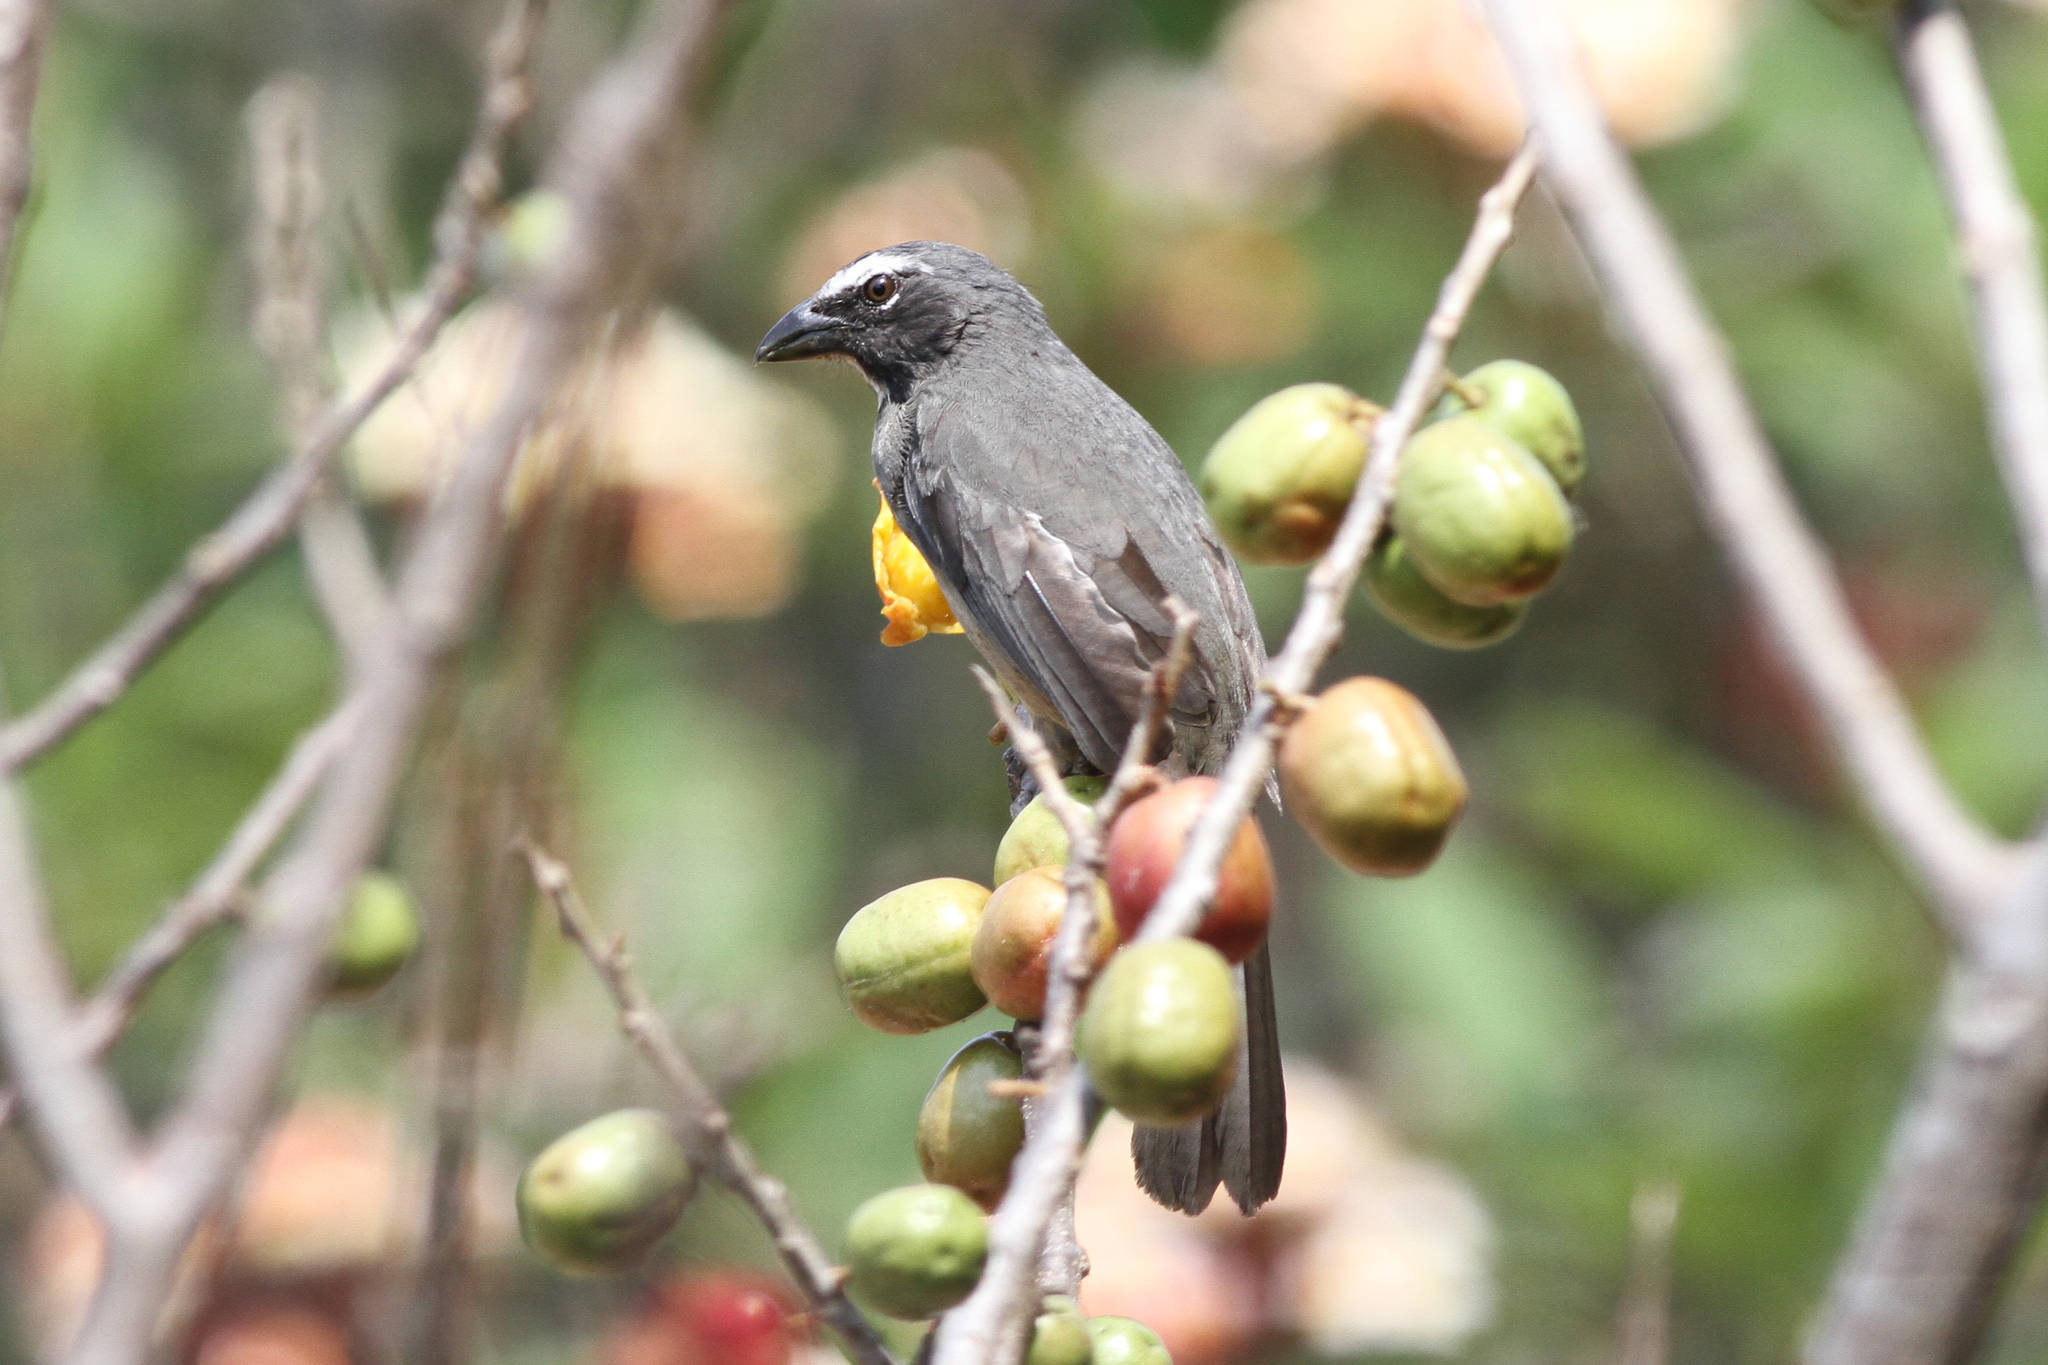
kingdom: Animalia
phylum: Chordata
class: Aves
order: Passeriformes
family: Thraupidae
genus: Saltator
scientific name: Saltator grandis
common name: Cinnamon-bellied saltator
